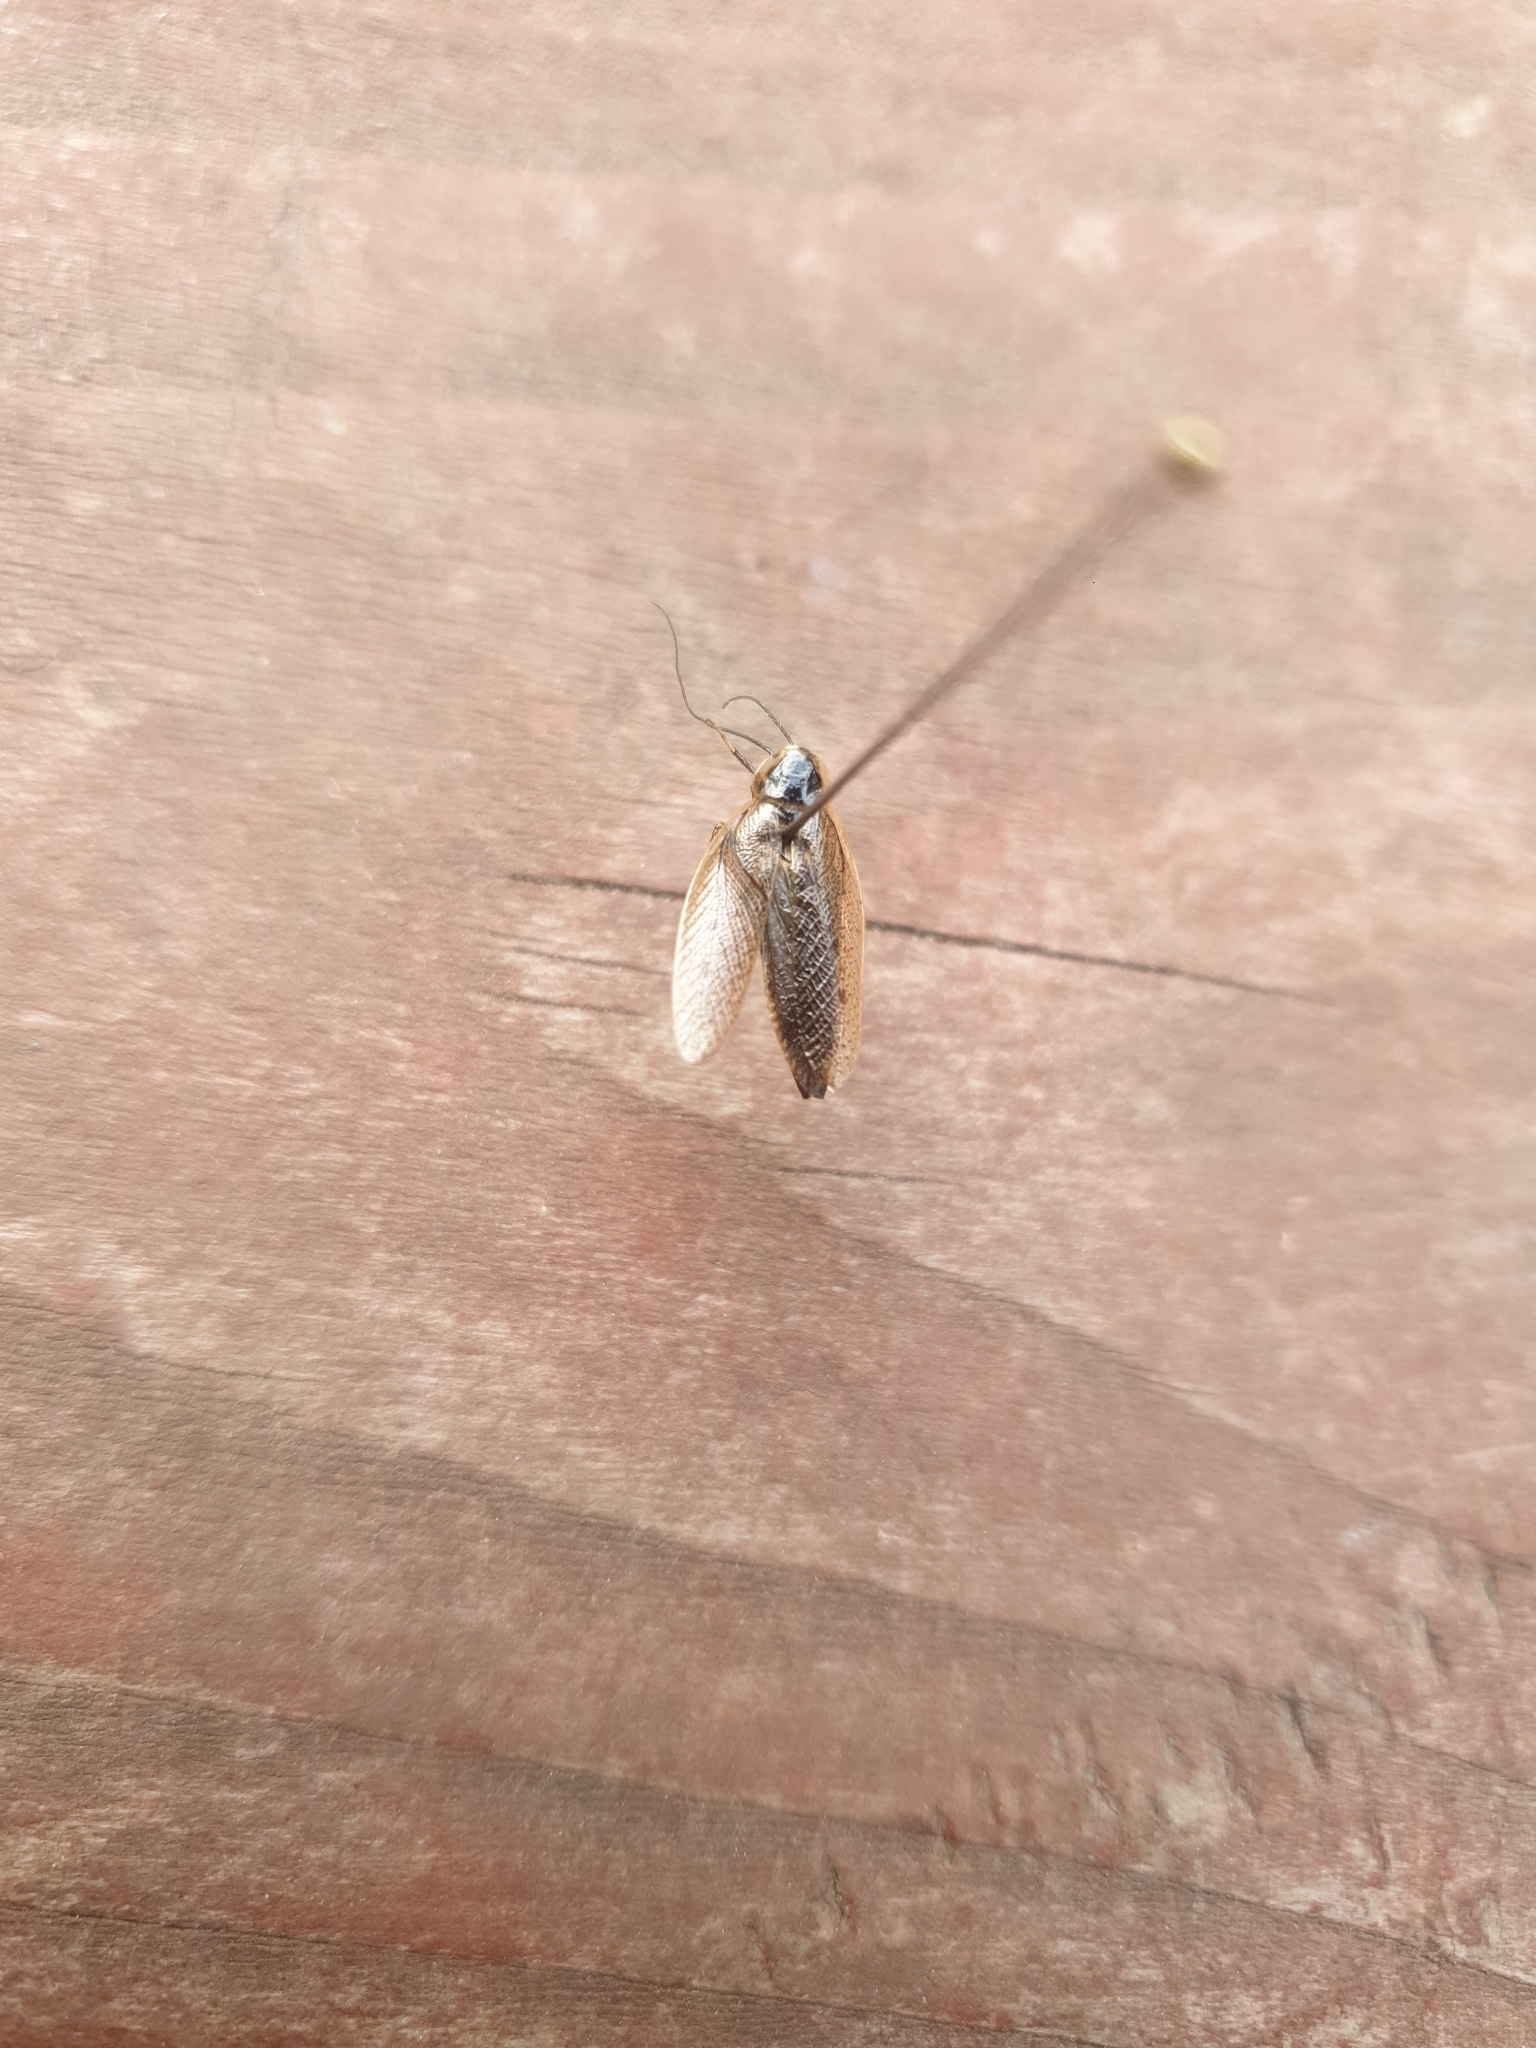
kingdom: Animalia
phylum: Arthropoda
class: Insecta
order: Blattodea
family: Ectobiidae
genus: Ectobius
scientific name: Ectobius lapponicus
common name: Dusky cockroach
